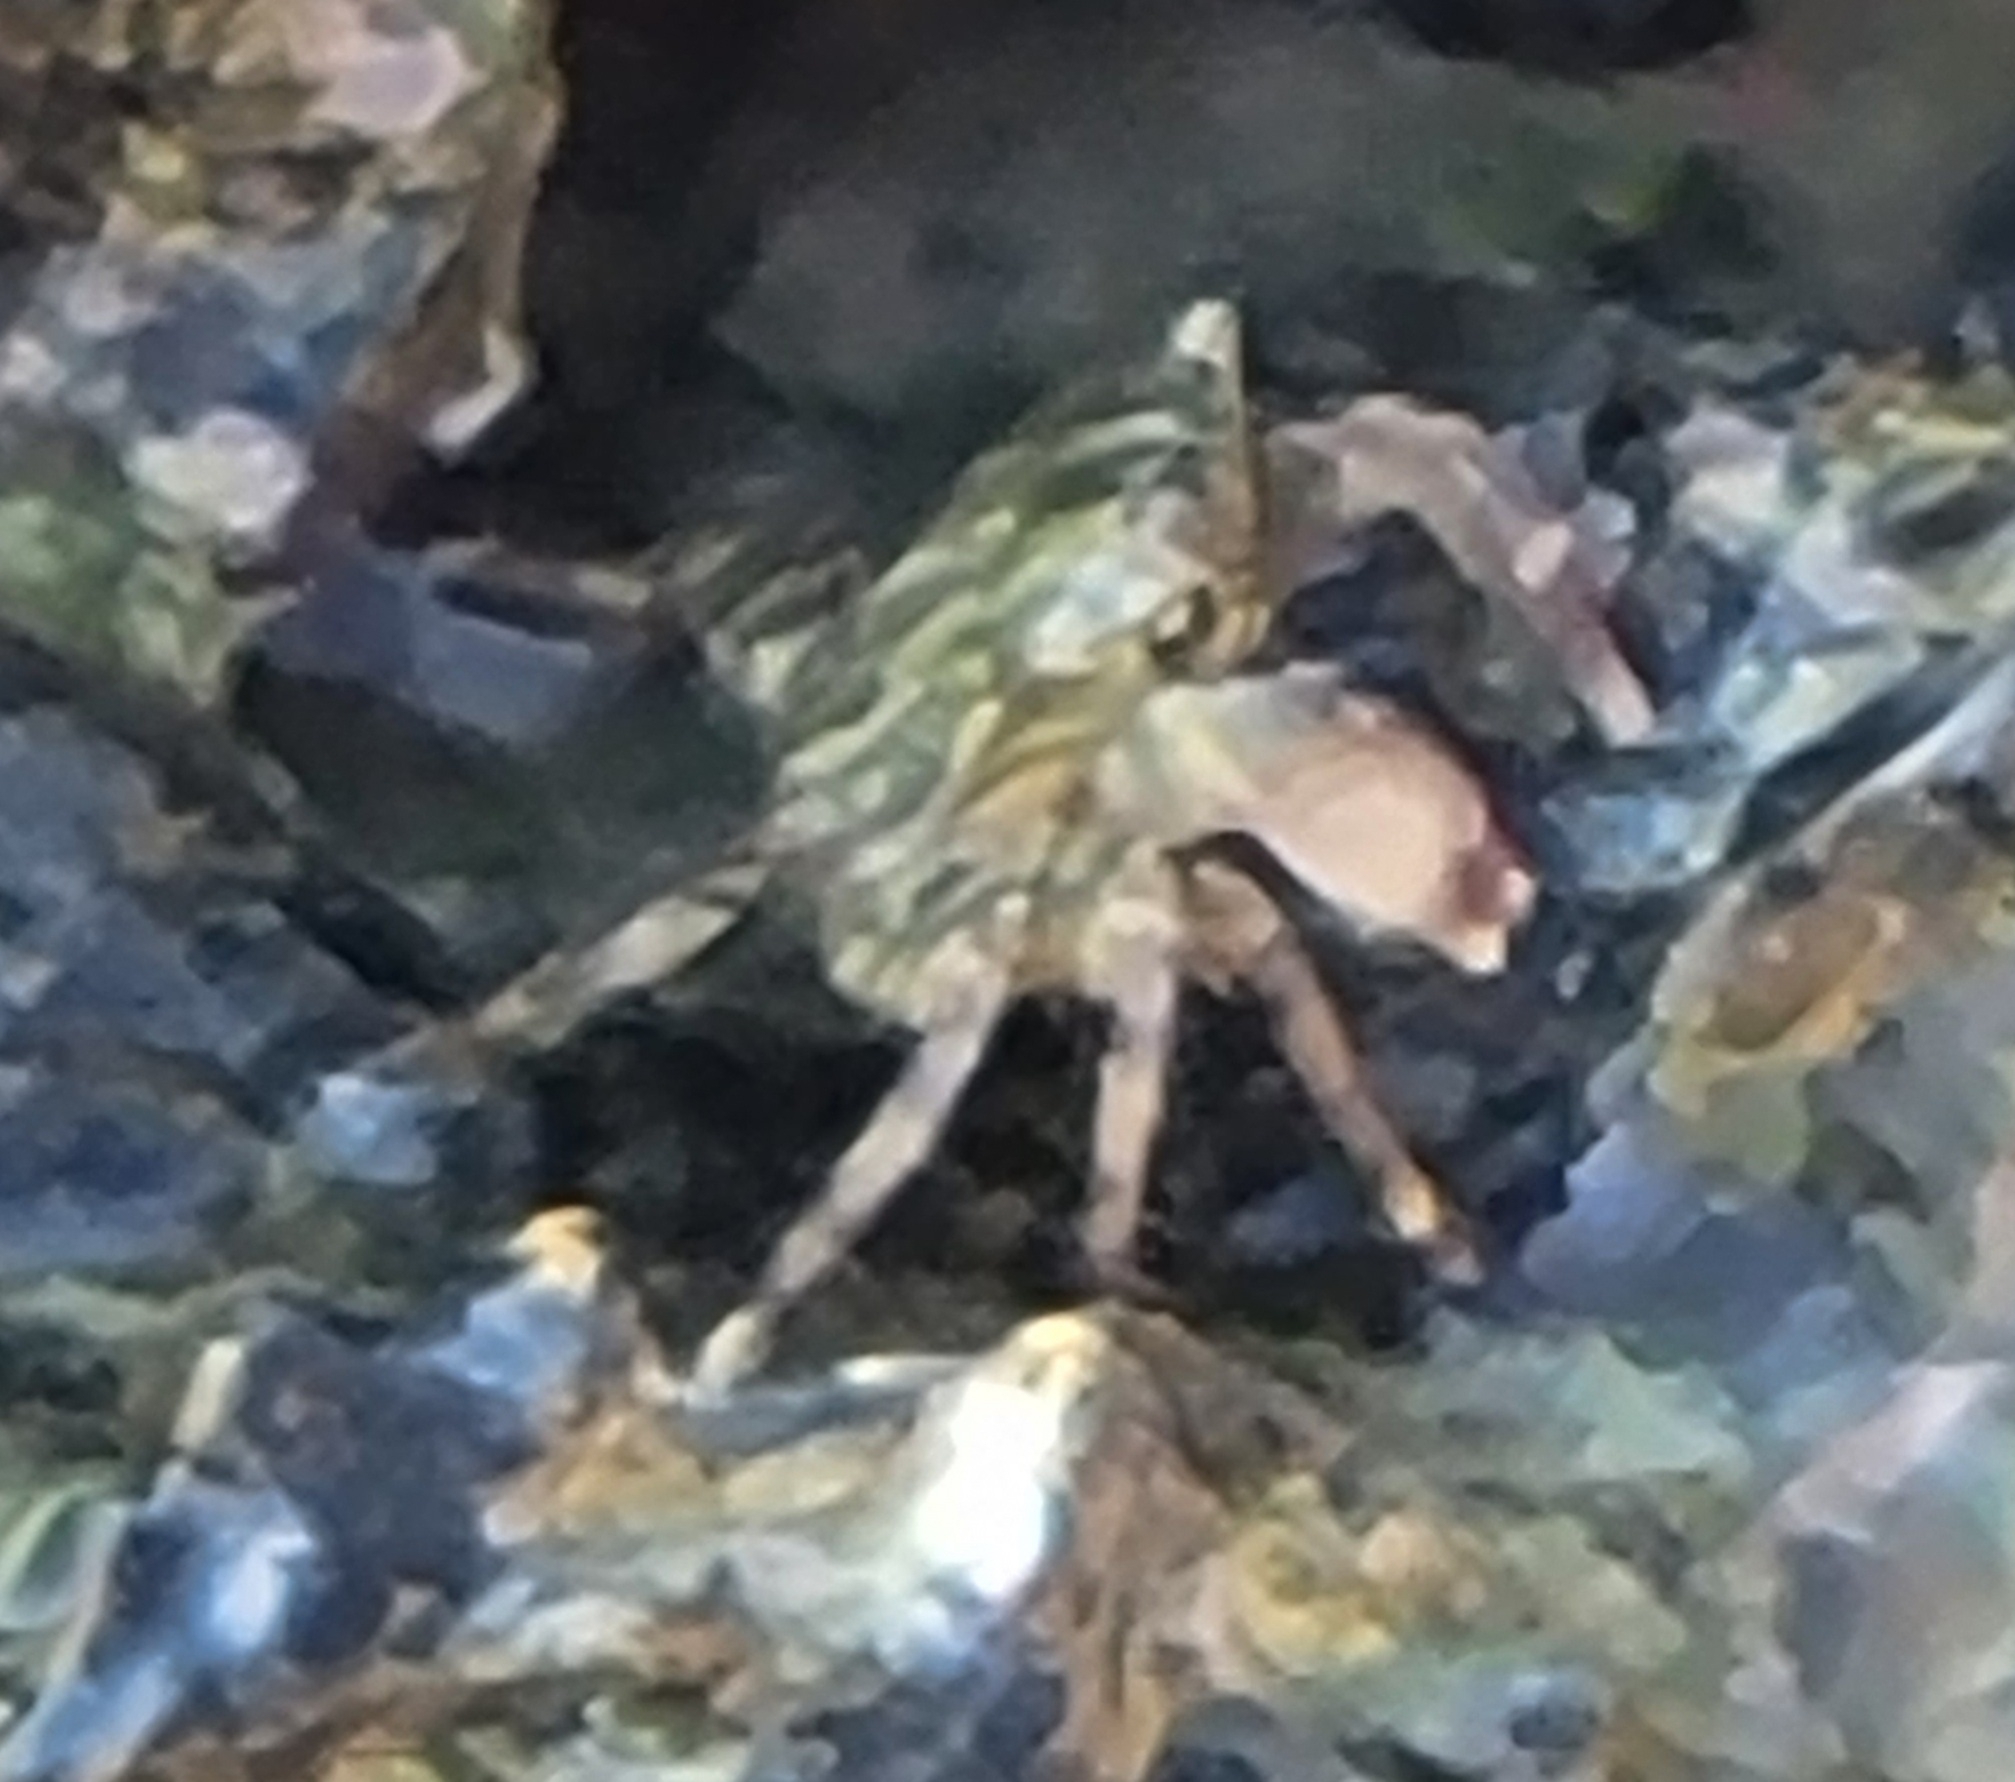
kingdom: Animalia
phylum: Arthropoda
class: Malacostraca
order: Decapoda
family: Grapsidae
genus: Pachygrapsus
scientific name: Pachygrapsus marmoratus
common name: Marbled rock crab
